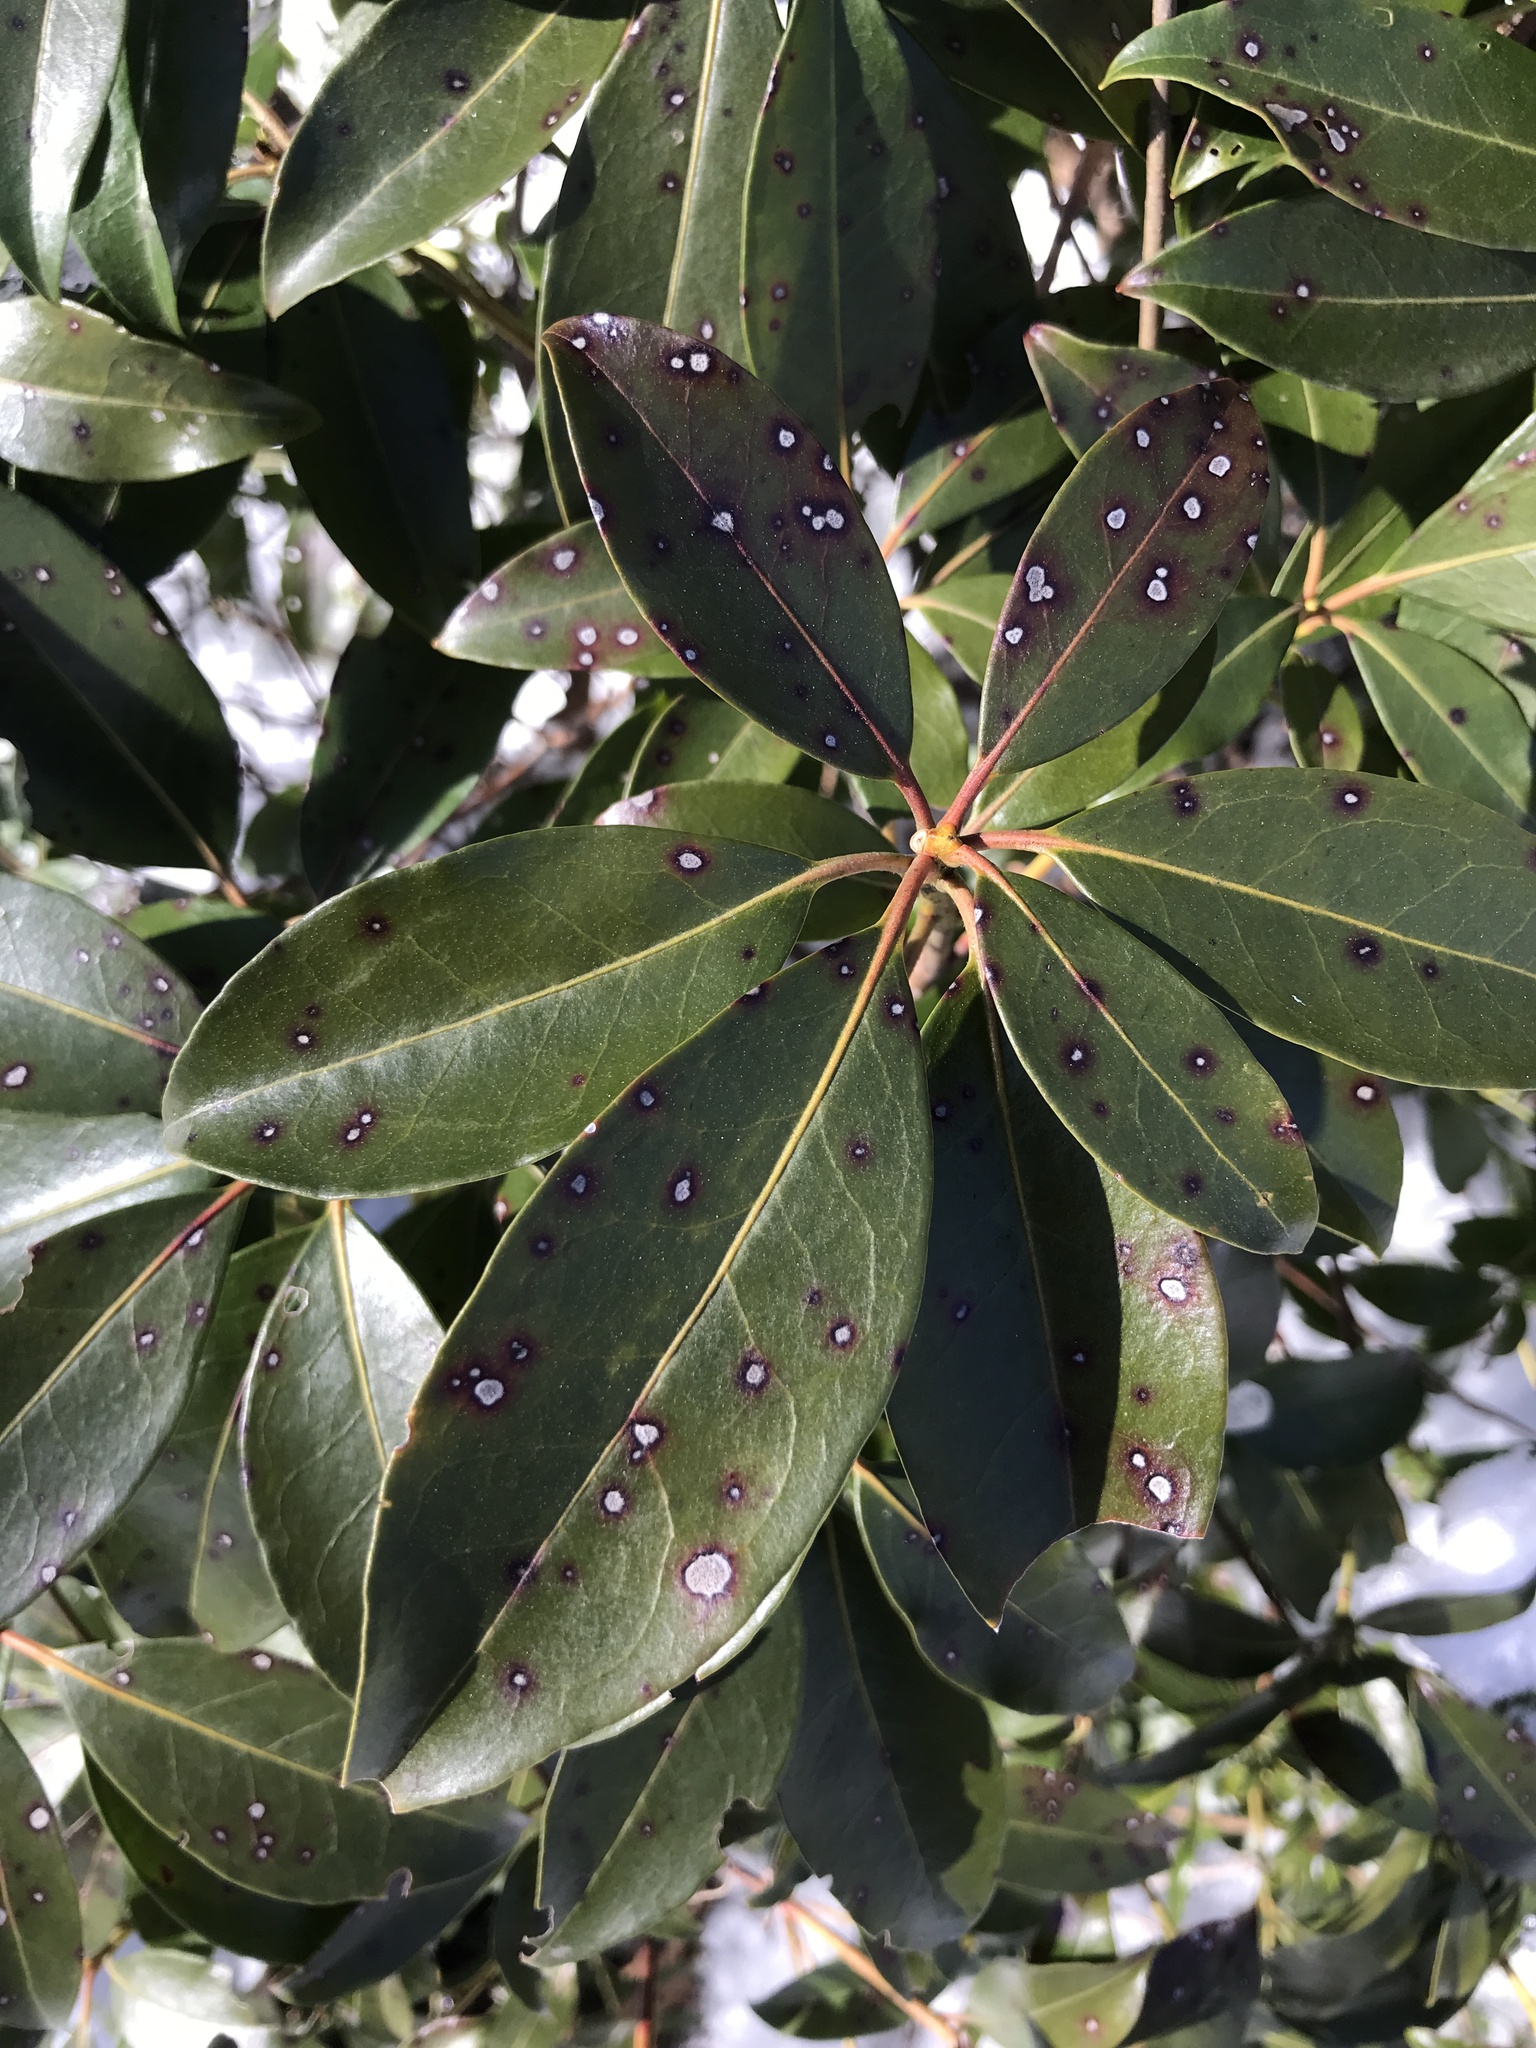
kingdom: Fungi
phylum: Ascomycota
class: Dothideomycetes
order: Mycosphaerellales
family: Mycosphaerellaceae
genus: Mycosphaerella
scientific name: Mycosphaerella colorata
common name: Mountain laurel leaf spot
